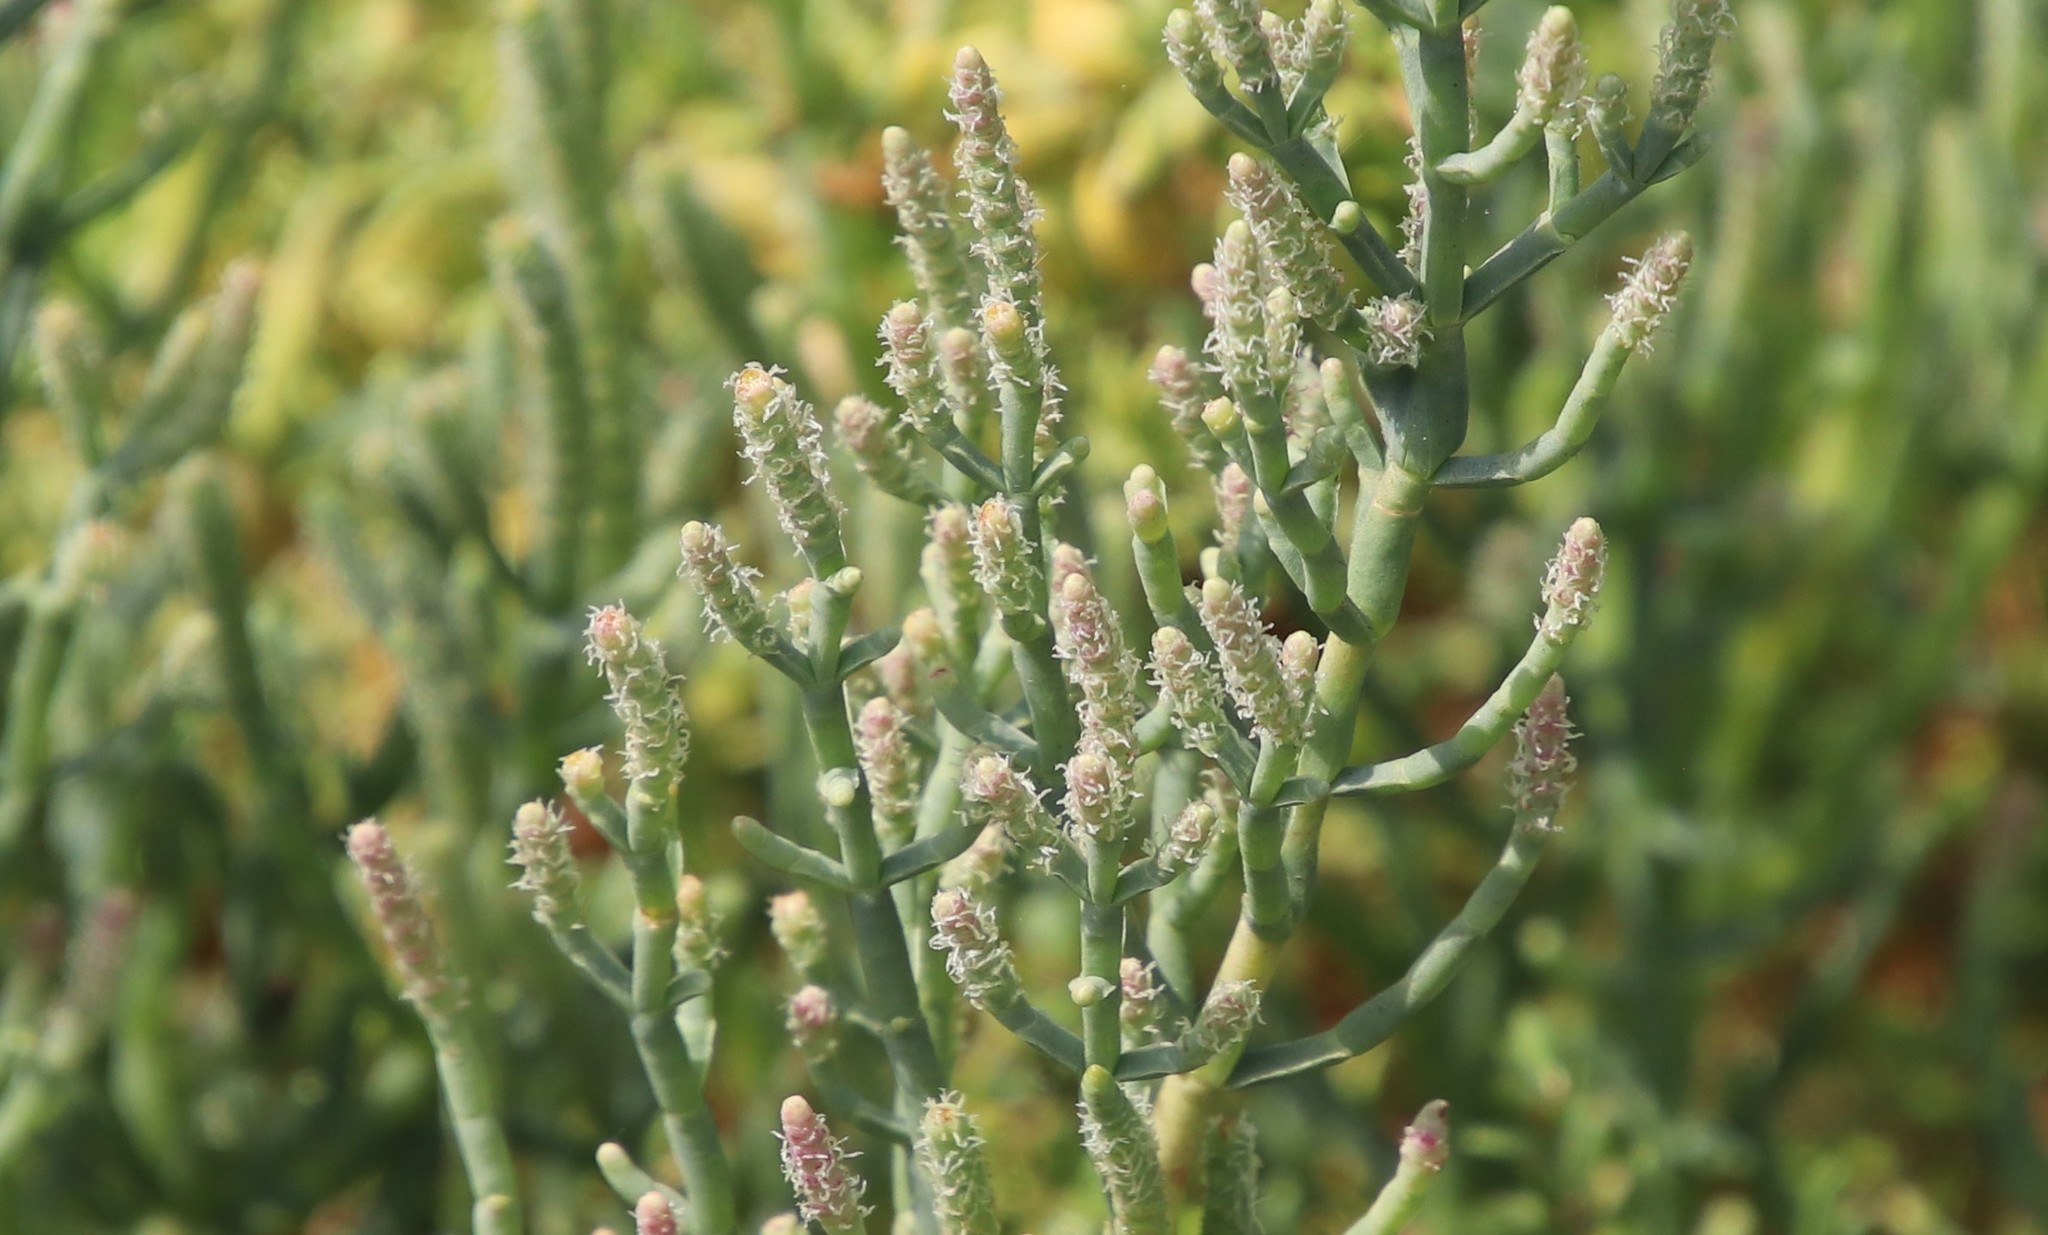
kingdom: Plantae
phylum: Tracheophyta
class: Magnoliopsida
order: Caryophyllales
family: Amaranthaceae
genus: Salicornia
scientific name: Salicornia pacifica
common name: Pacific glasswort
